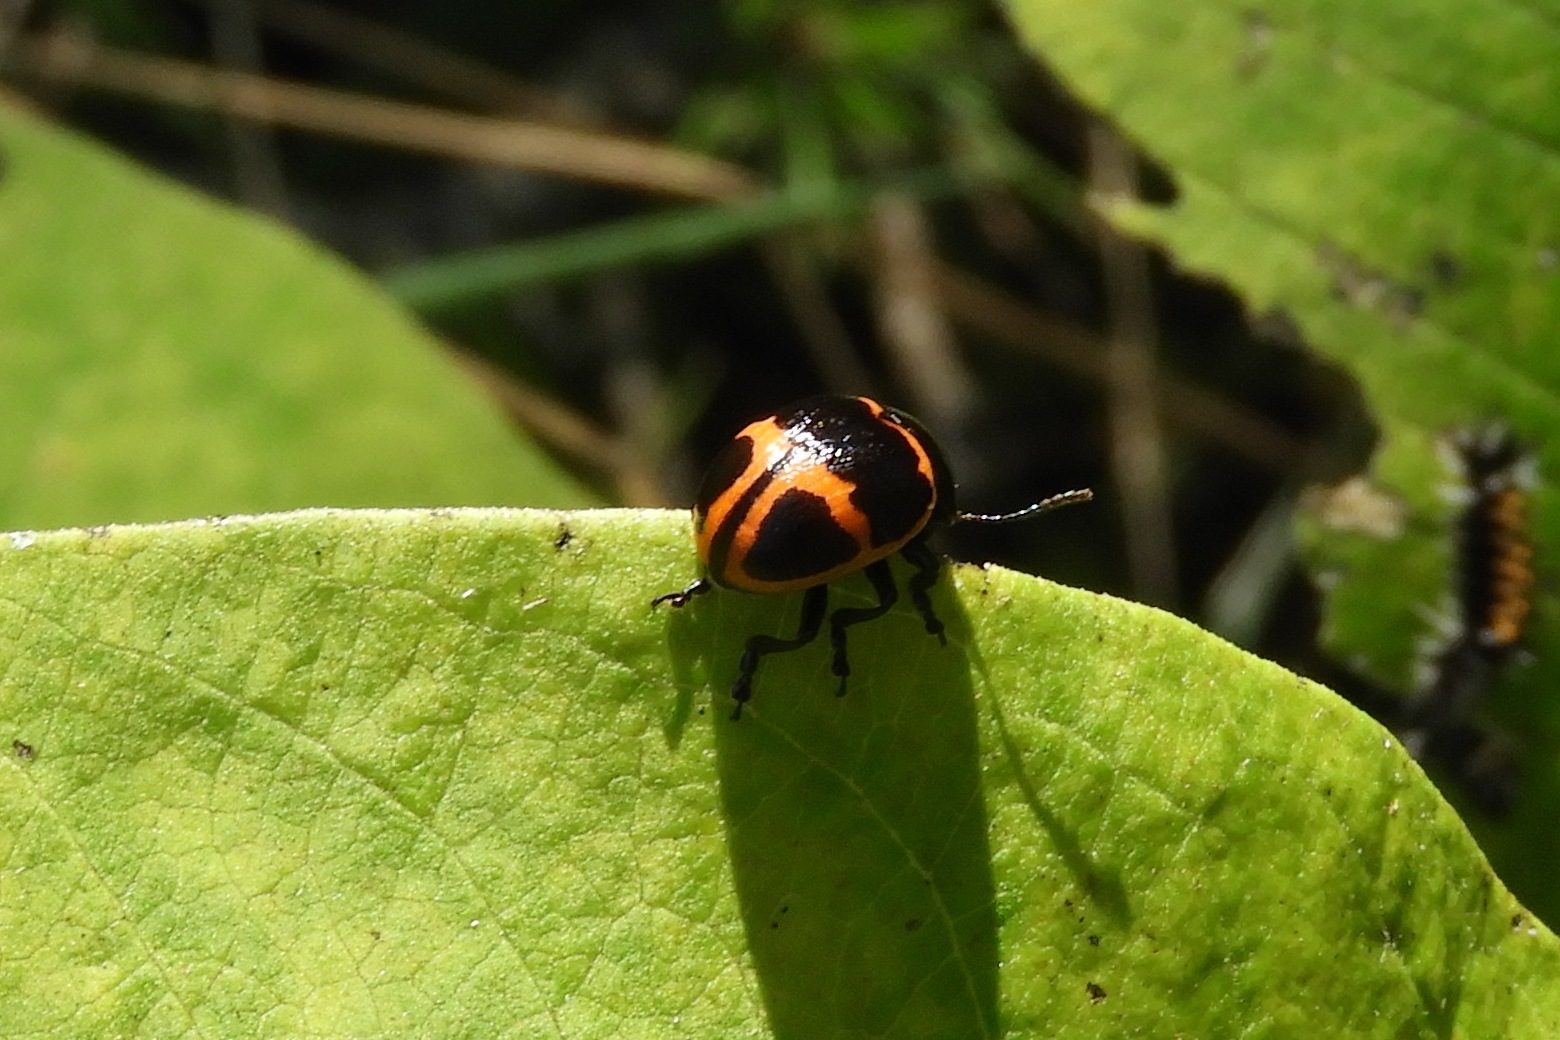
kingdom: Animalia
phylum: Arthropoda
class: Insecta
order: Coleoptera
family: Chrysomelidae
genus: Labidomera
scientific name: Labidomera clivicollis
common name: Swamp milkweed leaf beetle
